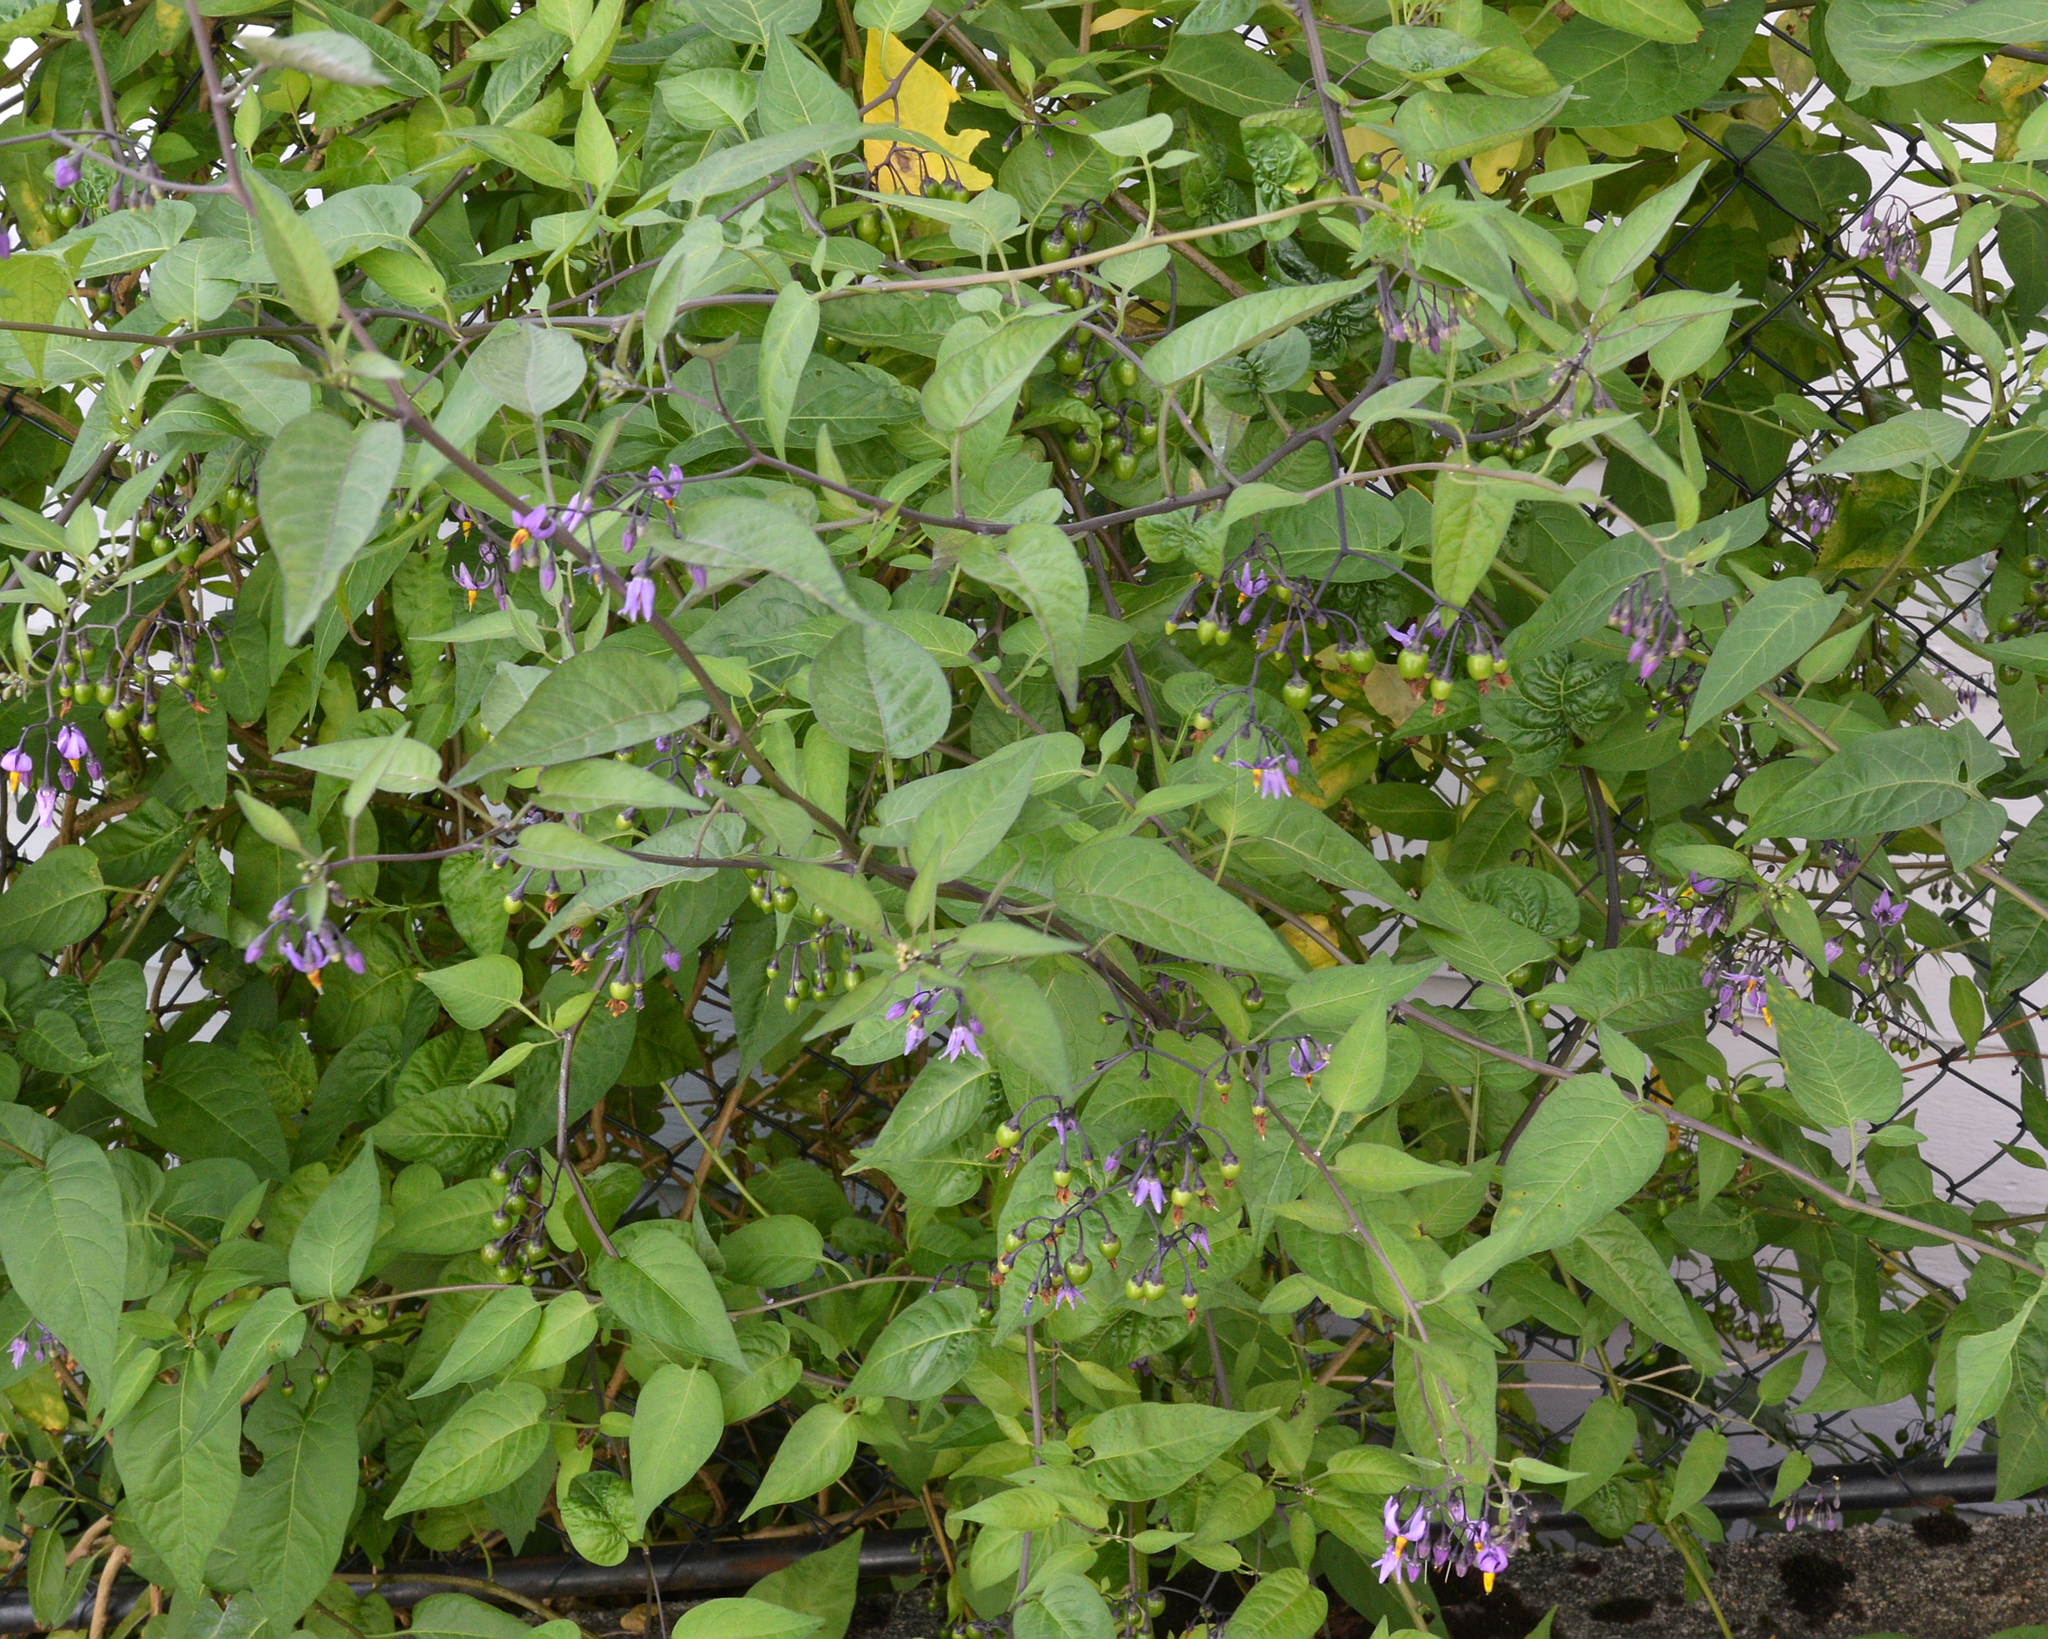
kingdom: Plantae
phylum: Tracheophyta
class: Magnoliopsida
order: Solanales
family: Solanaceae
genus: Solanum
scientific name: Solanum dulcamara
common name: Climbing nightshade
